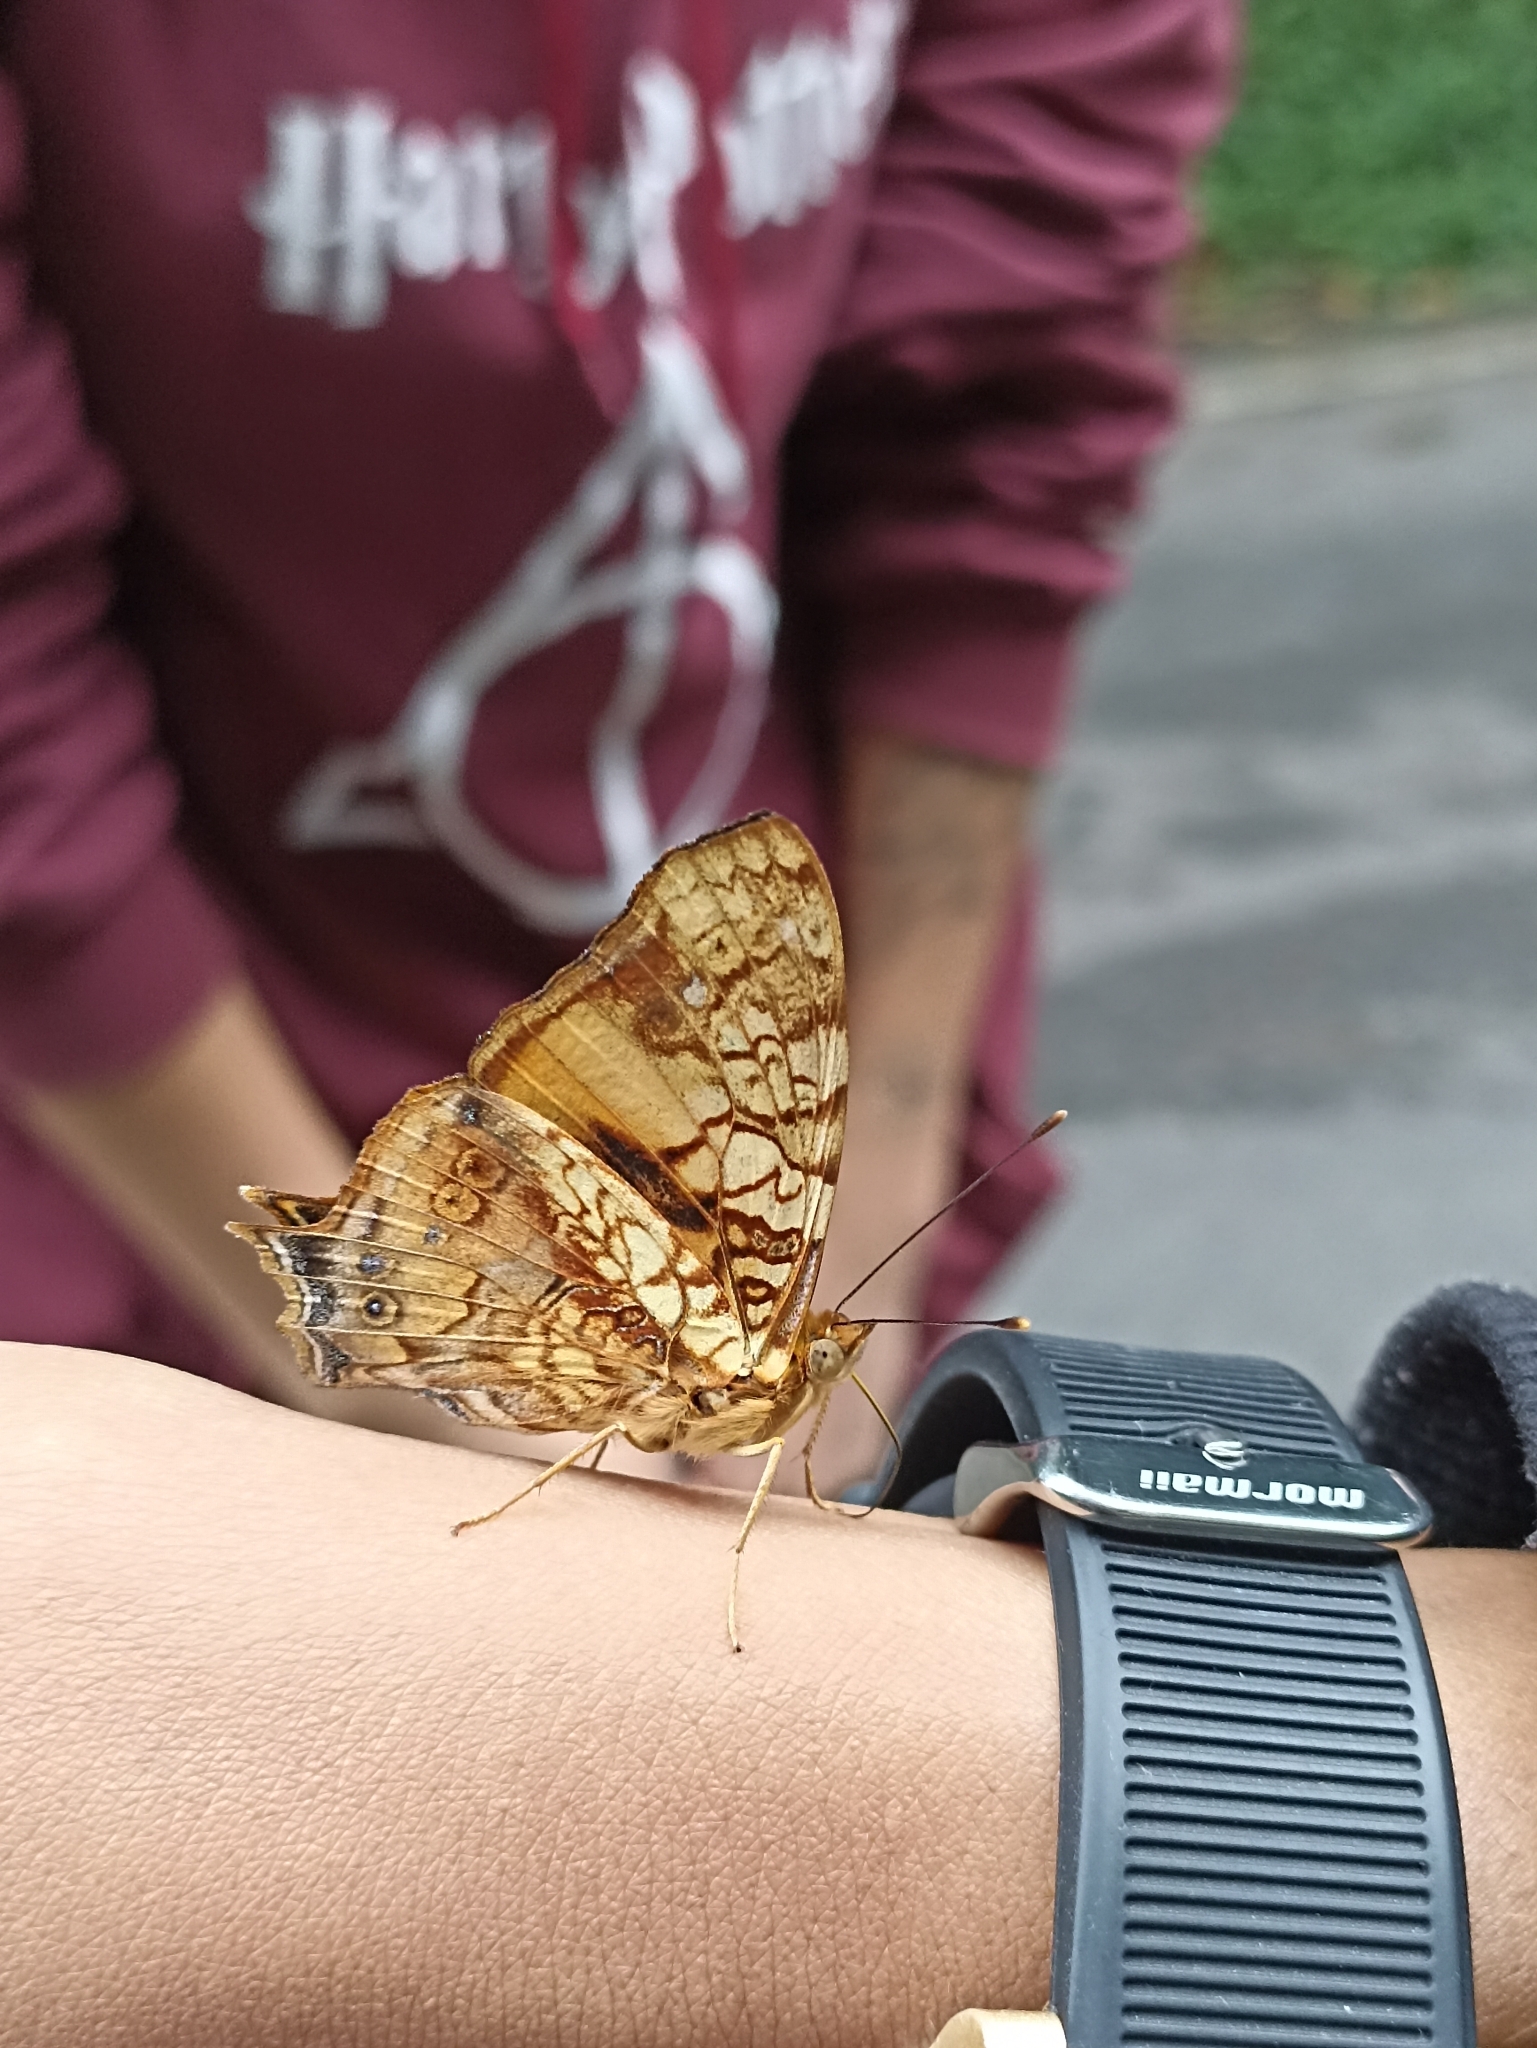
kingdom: Animalia
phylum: Arthropoda
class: Insecta
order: Lepidoptera
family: Nymphalidae
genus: Hypanartia
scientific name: Hypanartia lethe
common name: Orange mapwing
